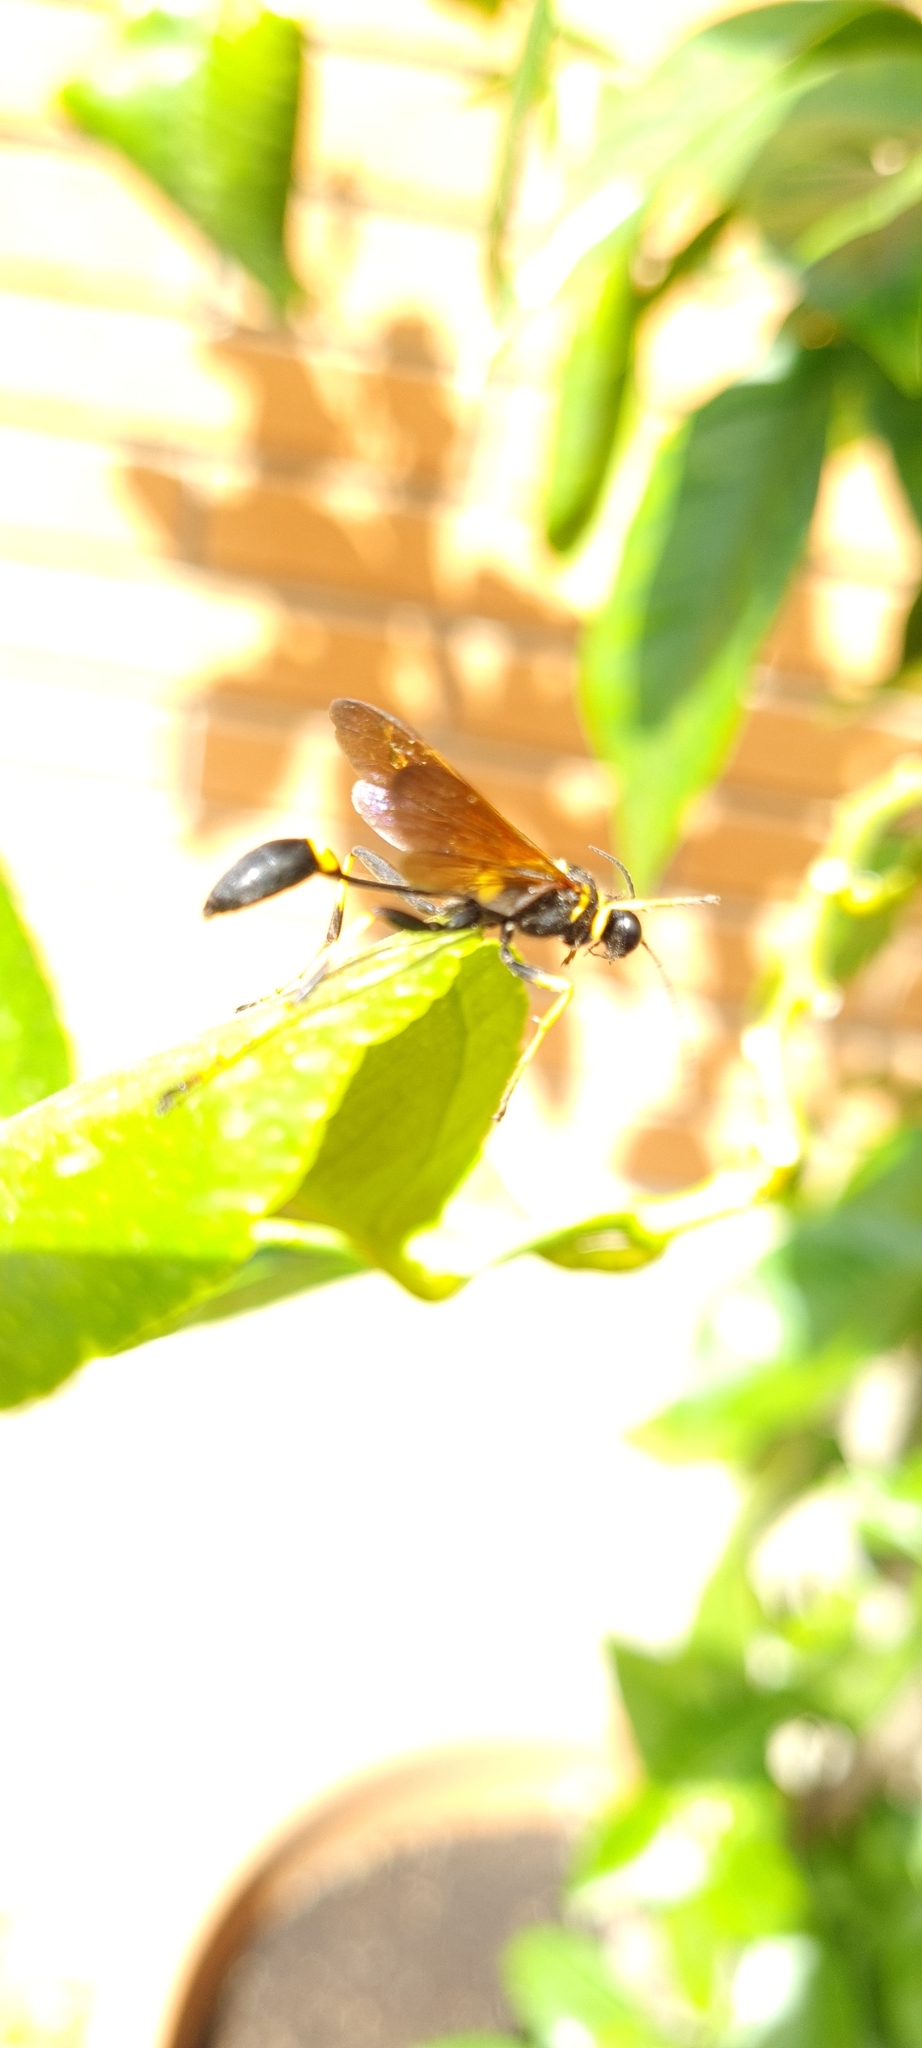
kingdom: Animalia
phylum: Arthropoda
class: Insecta
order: Hymenoptera
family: Sphecidae
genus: Sceliphron
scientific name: Sceliphron caementarium
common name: Mud dauber
